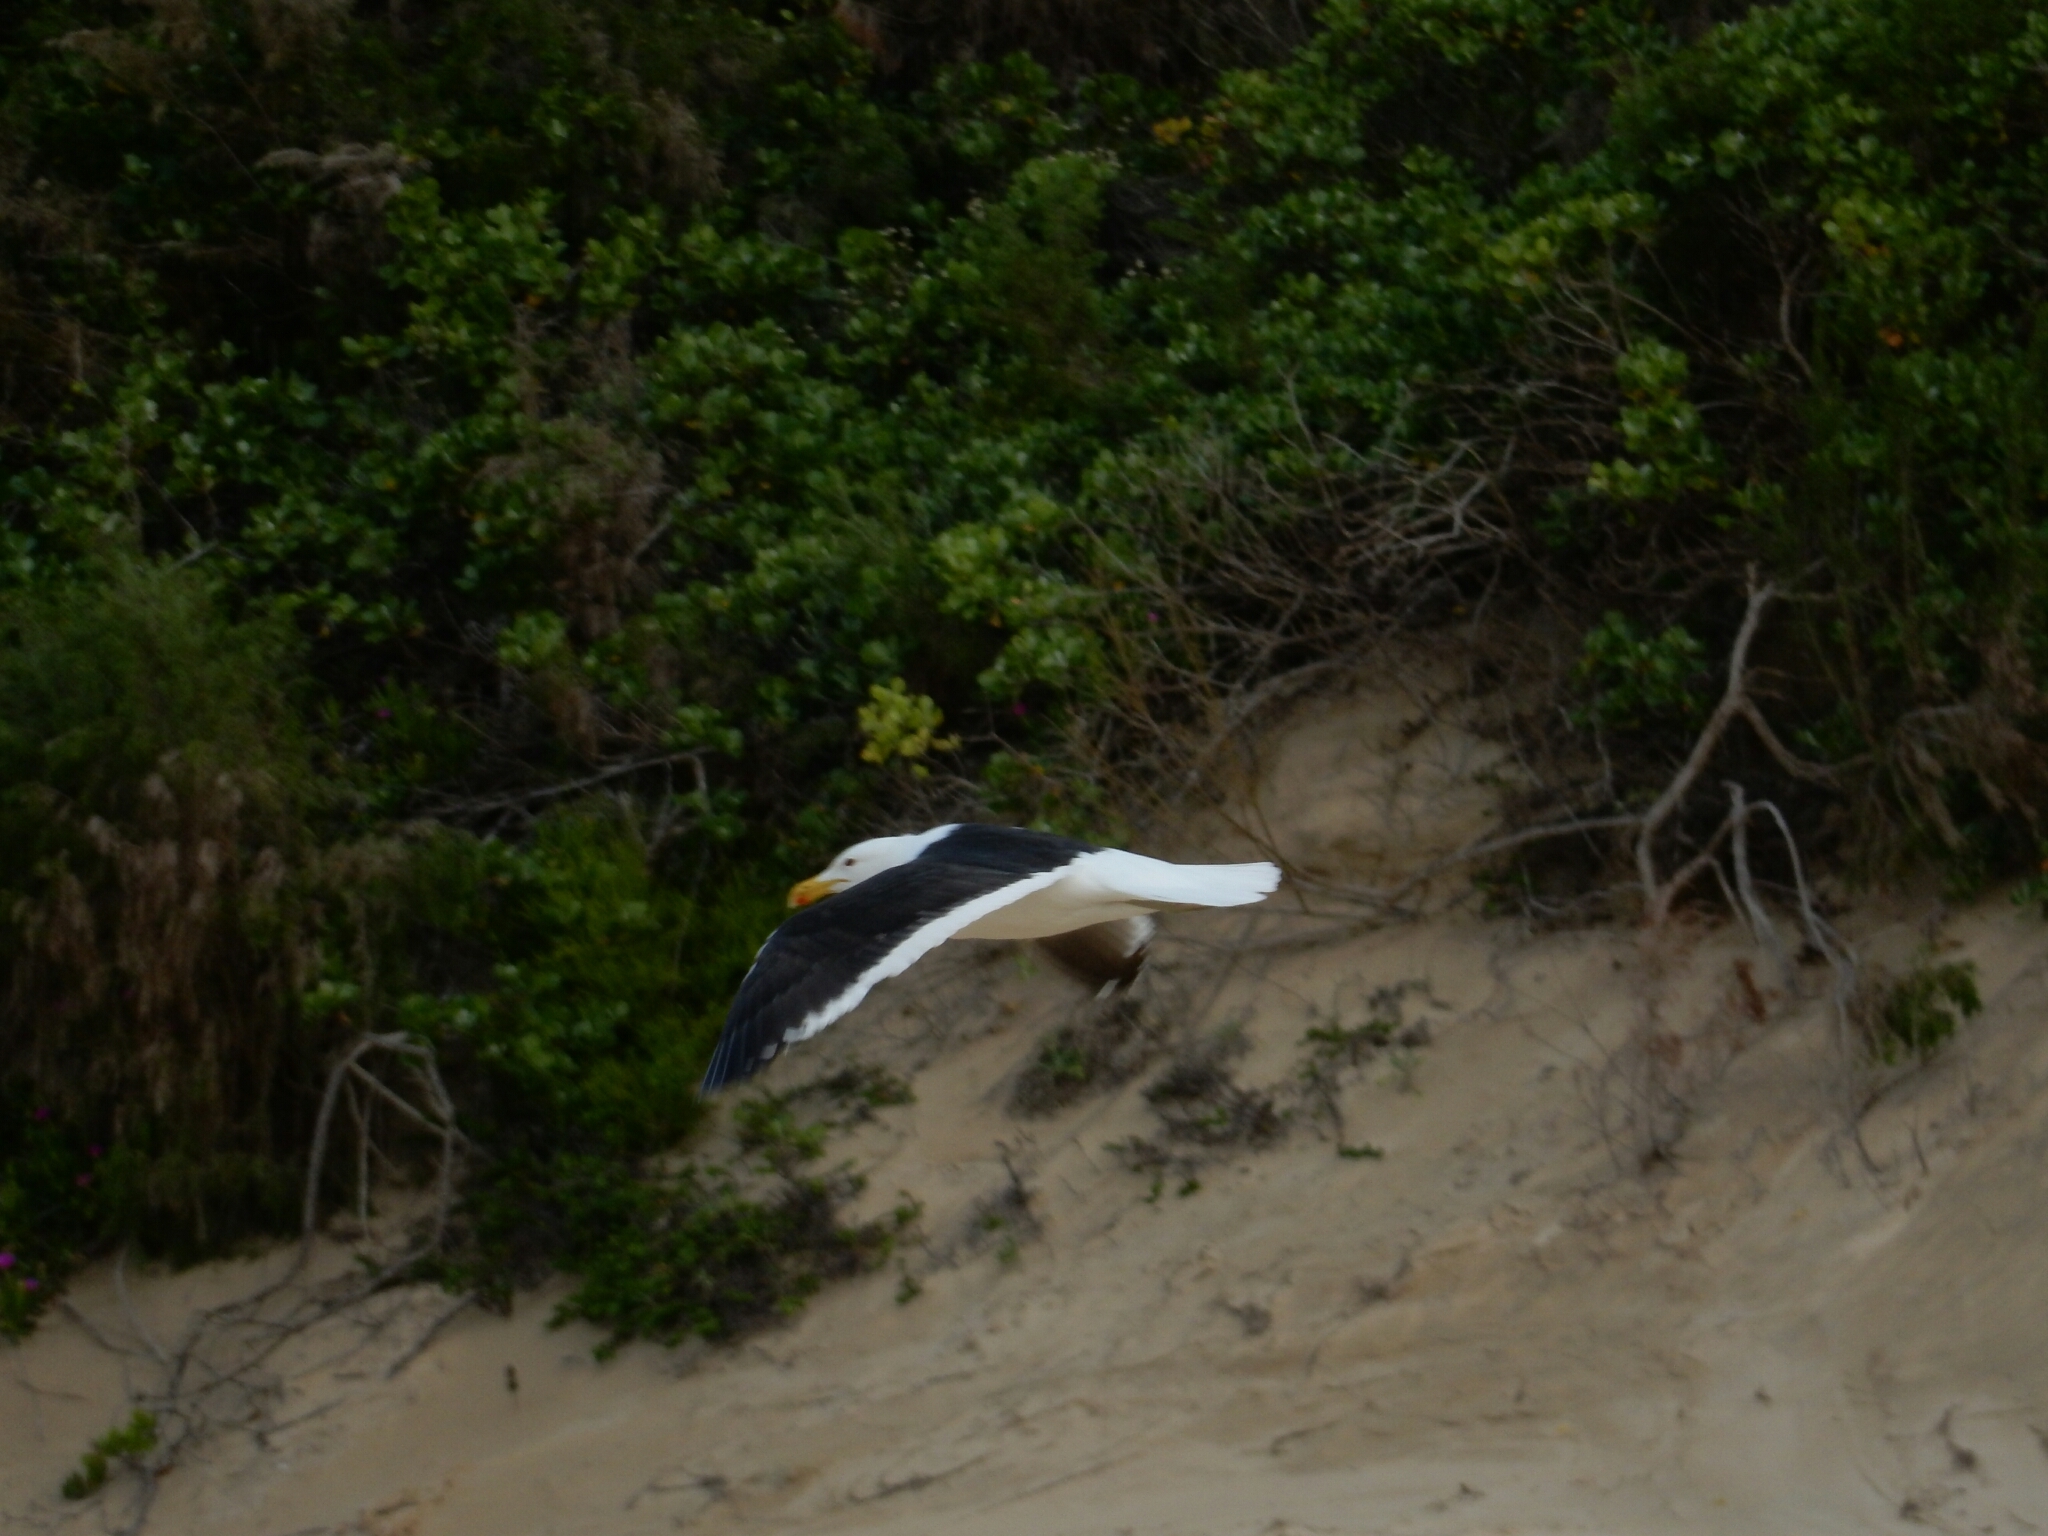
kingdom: Animalia
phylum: Chordata
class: Aves
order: Charadriiformes
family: Laridae
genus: Larus
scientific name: Larus dominicanus
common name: Kelp gull
